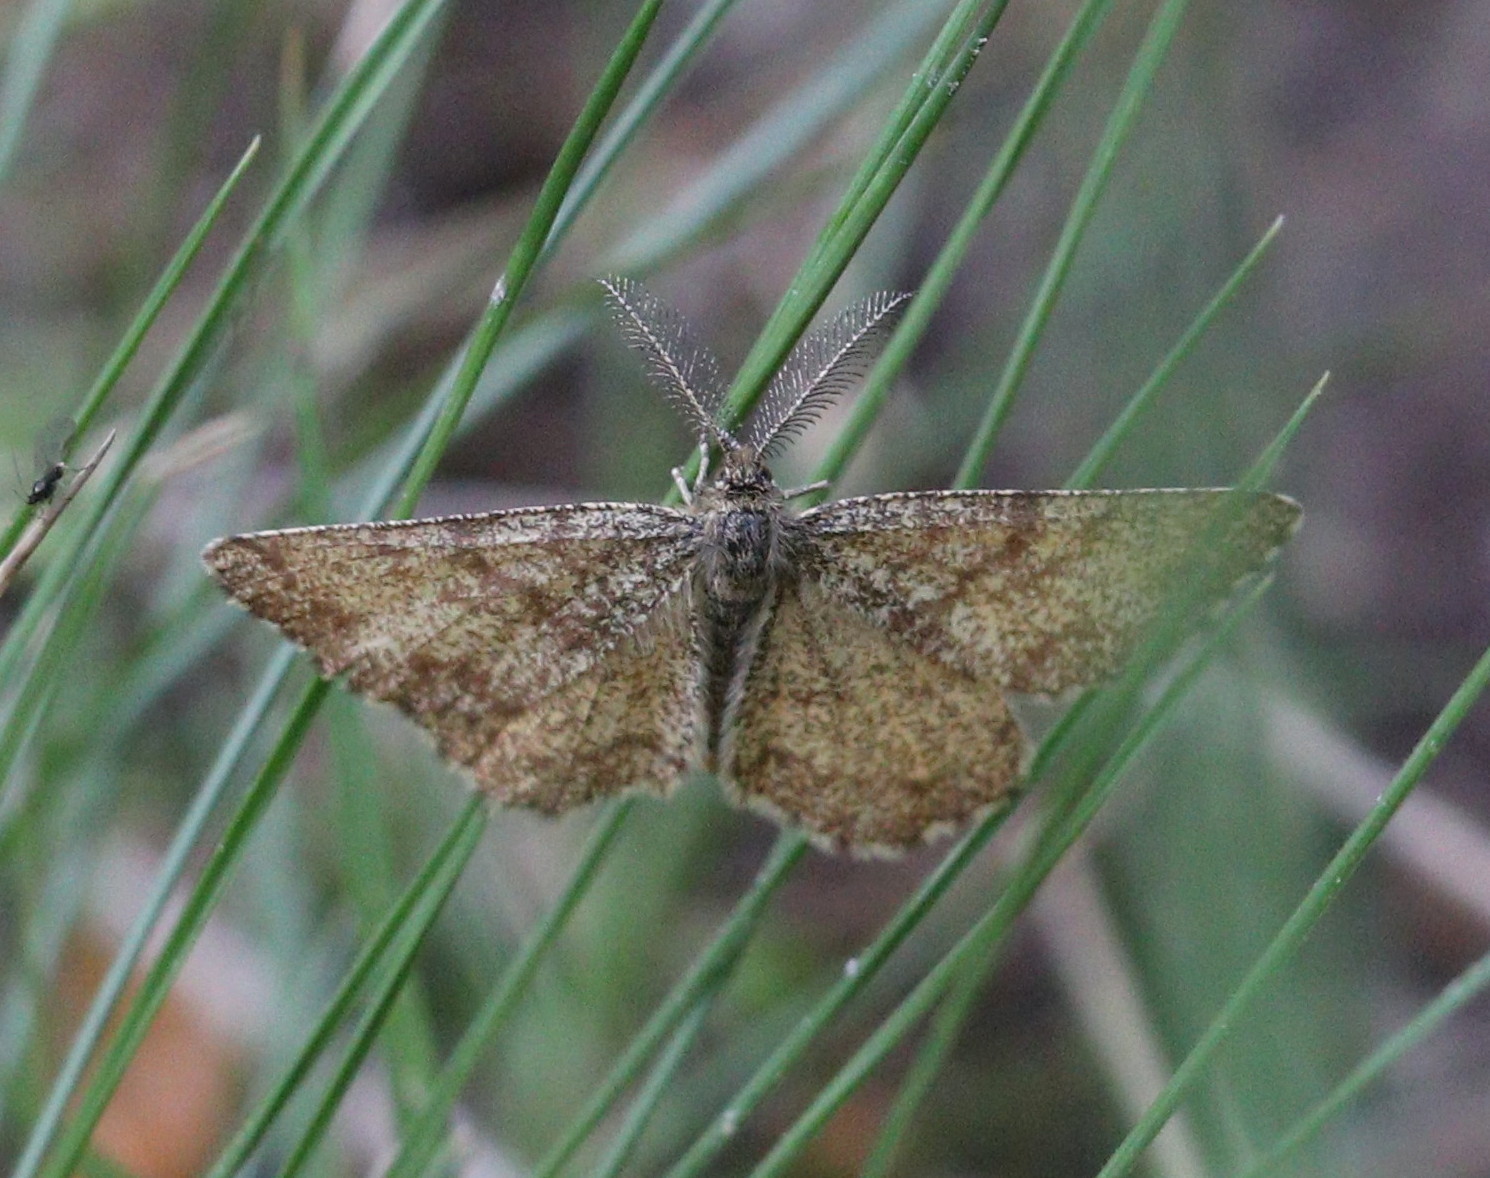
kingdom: Animalia
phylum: Arthropoda
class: Insecta
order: Lepidoptera
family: Geometridae
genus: Ematurga
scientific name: Ematurga atomaria
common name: Common heath
